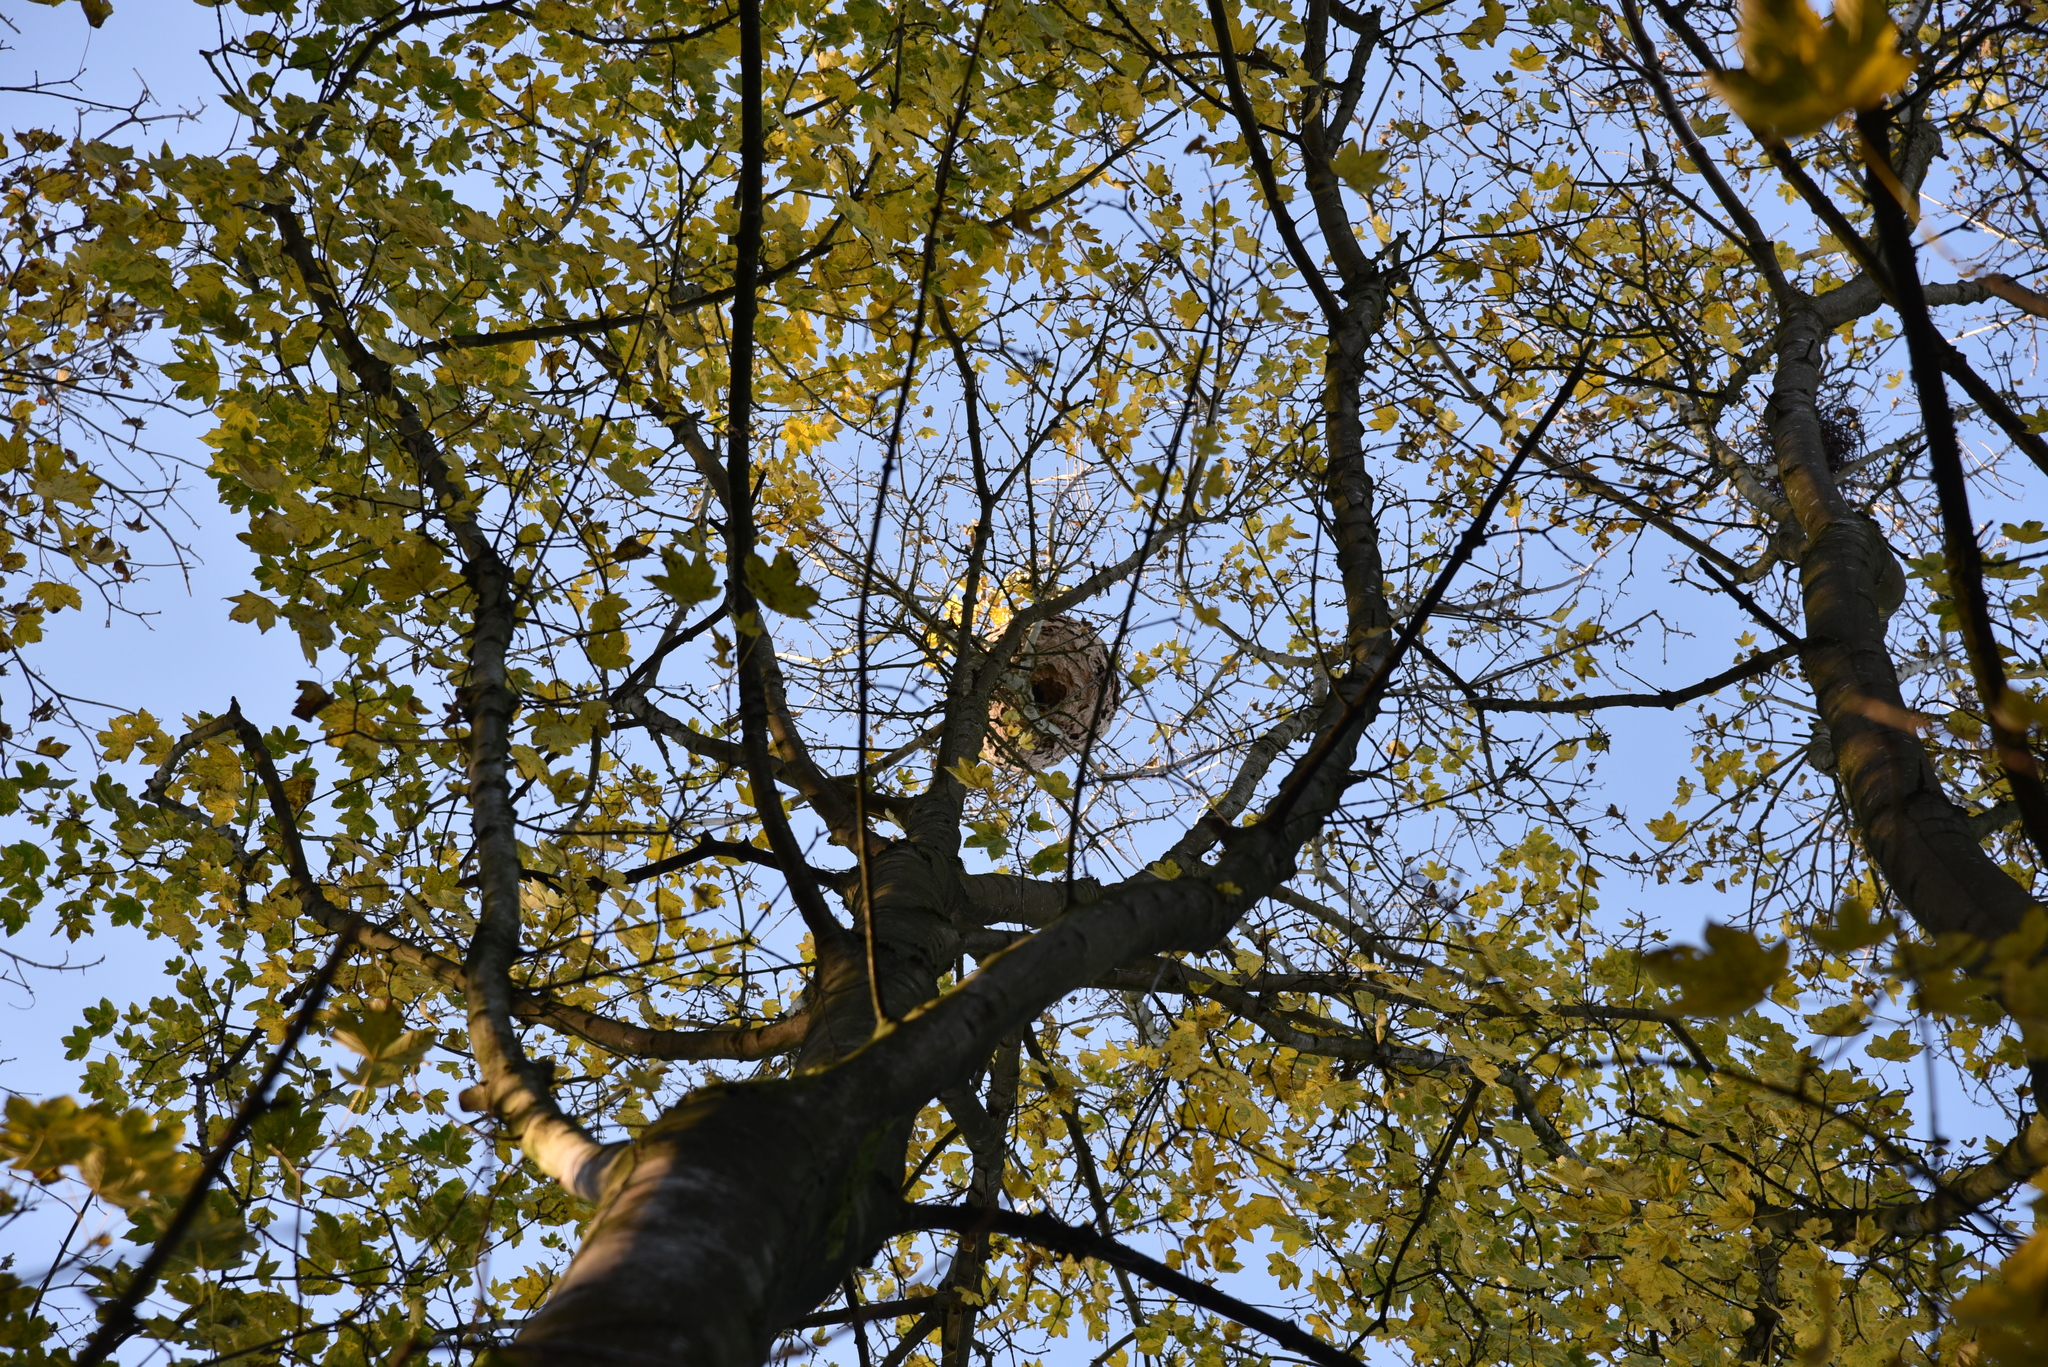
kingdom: Animalia
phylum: Arthropoda
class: Insecta
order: Hymenoptera
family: Vespidae
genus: Vespa
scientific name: Vespa velutina
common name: Asian hornet
